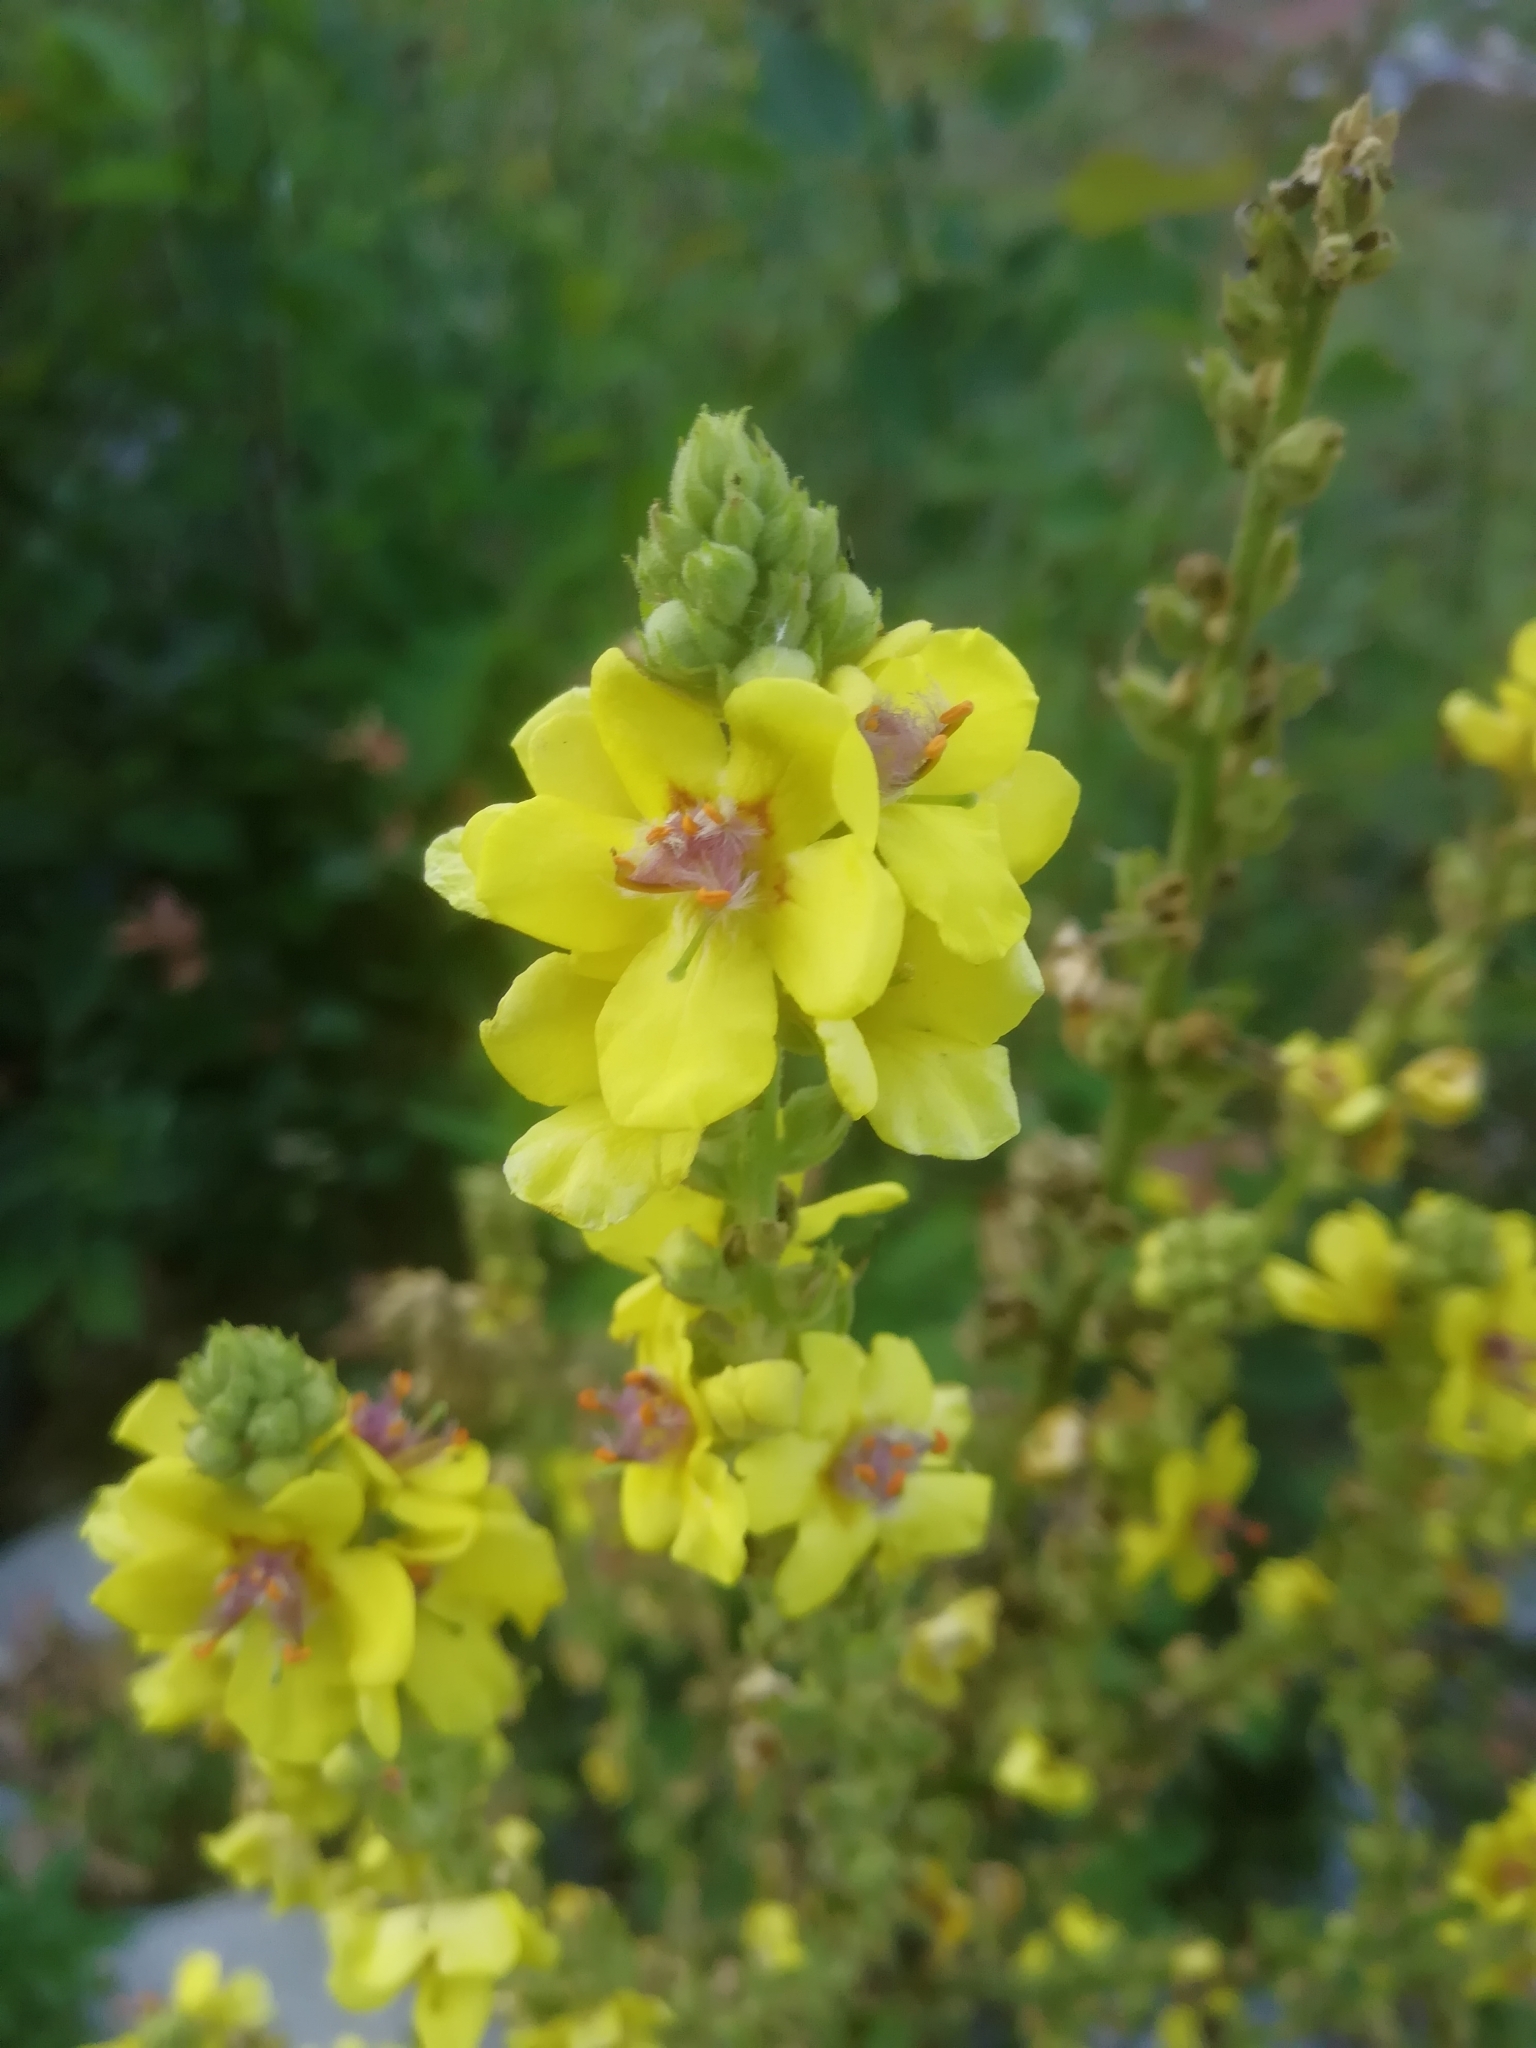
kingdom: Plantae
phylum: Tracheophyta
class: Magnoliopsida
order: Lamiales
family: Scrophulariaceae
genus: Verbascum
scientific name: Verbascum pyramidatum
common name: Caucasian mullein
